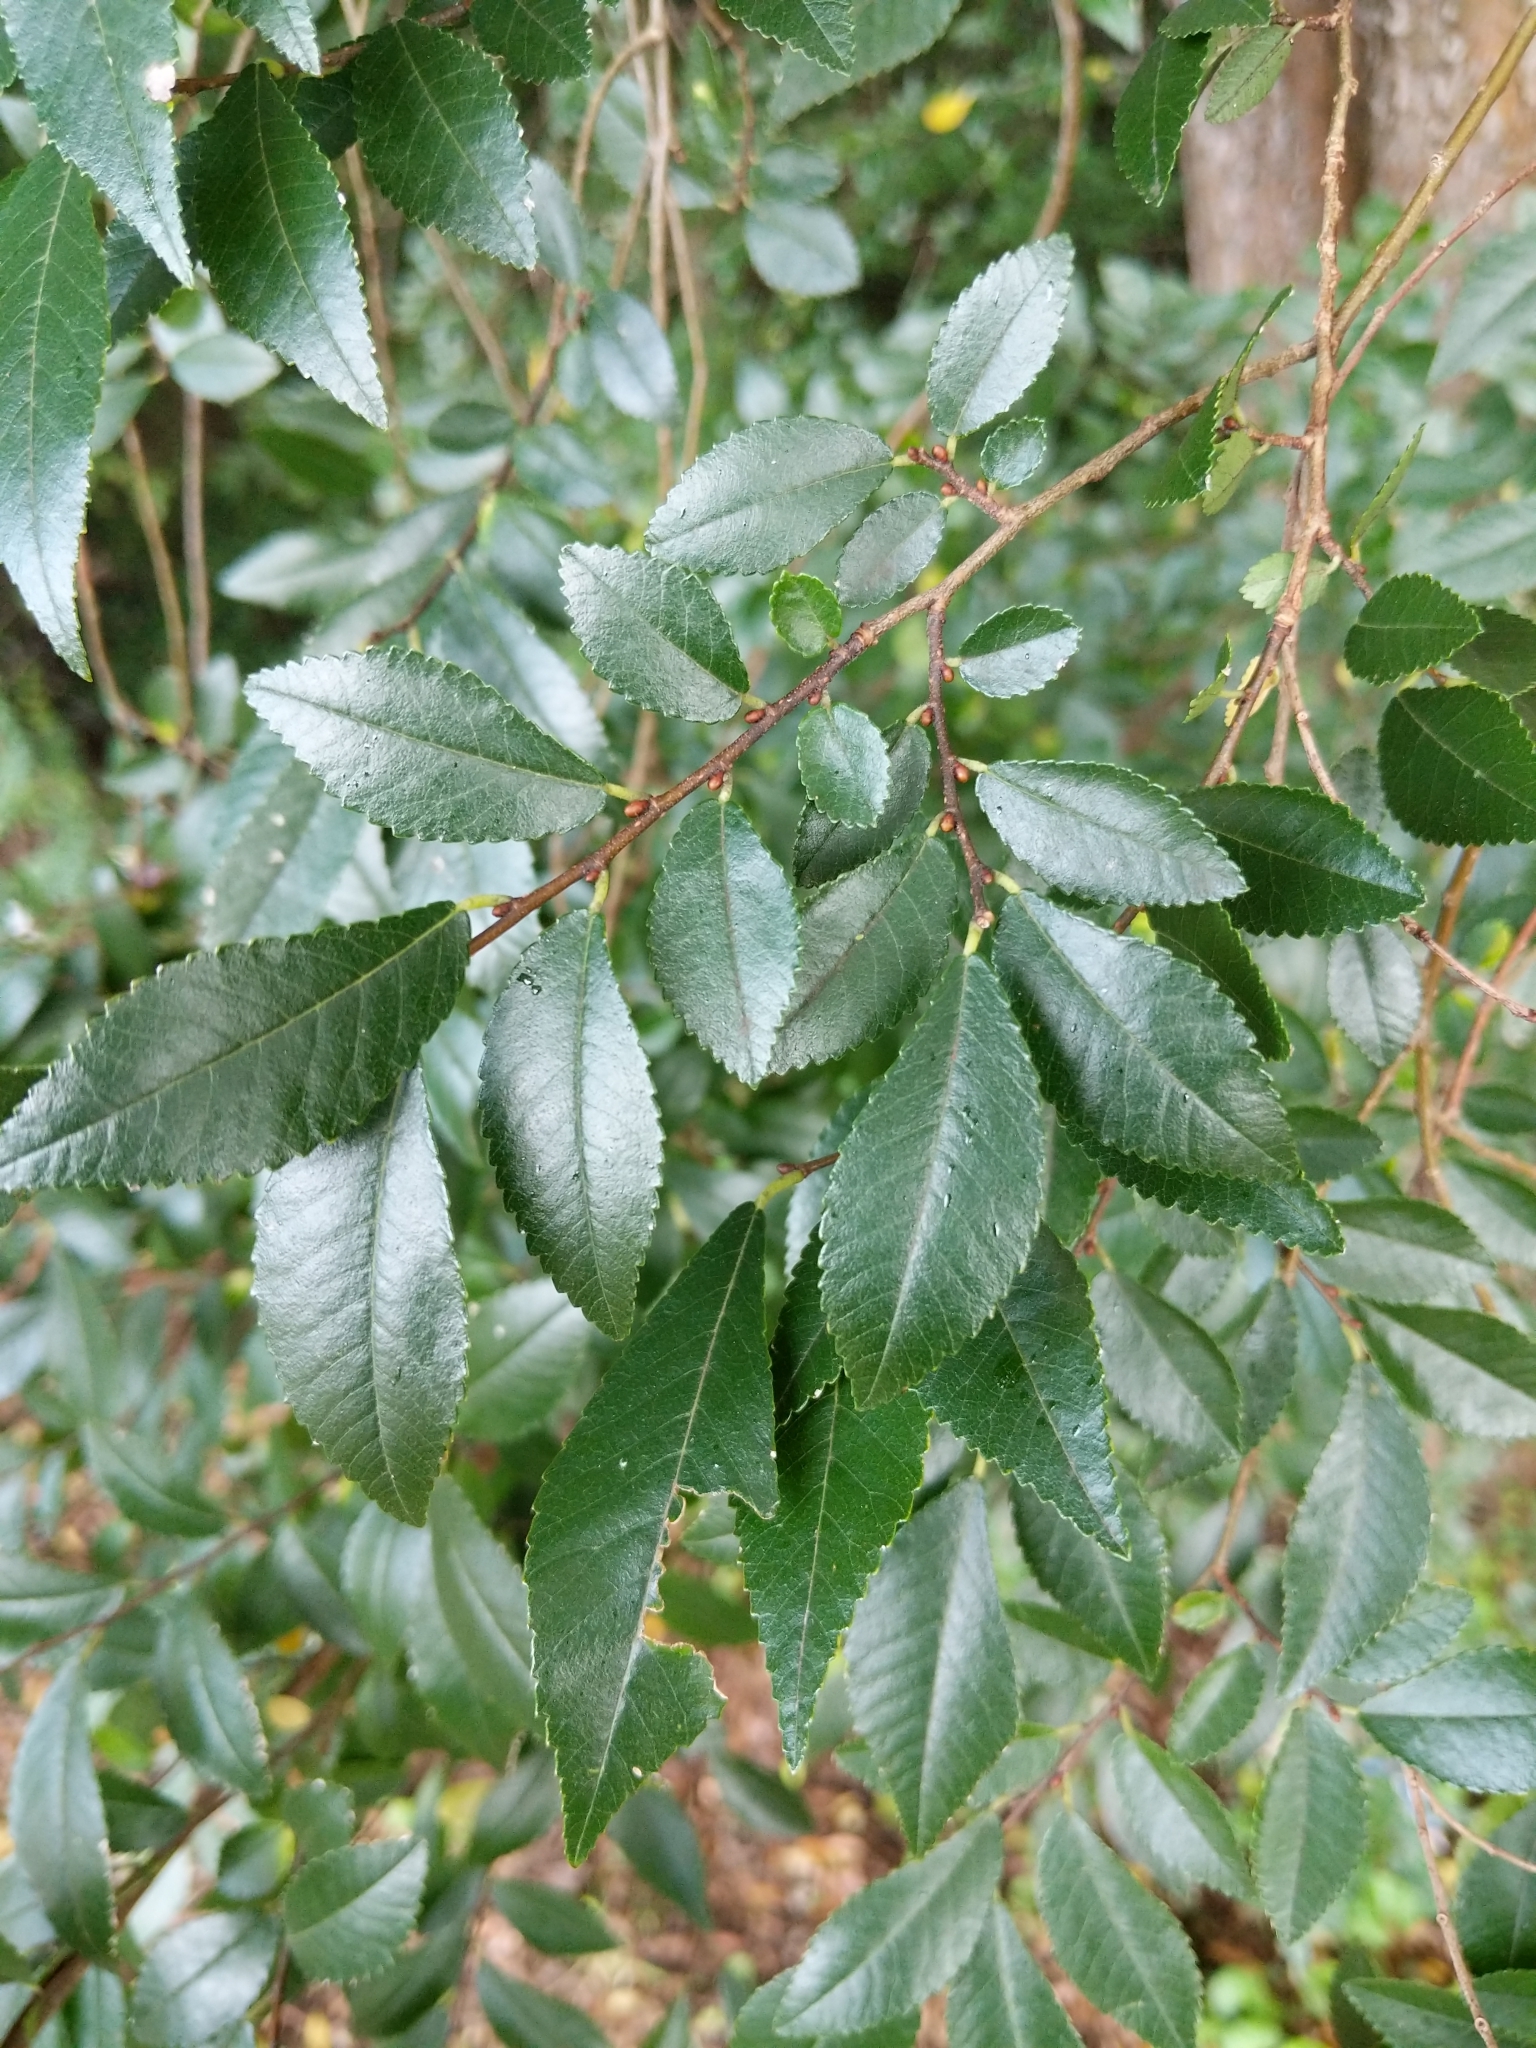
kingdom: Plantae
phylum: Tracheophyta
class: Magnoliopsida
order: Rosales
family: Ulmaceae
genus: Ulmus
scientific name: Ulmus parvifolia
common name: Chinese elm
